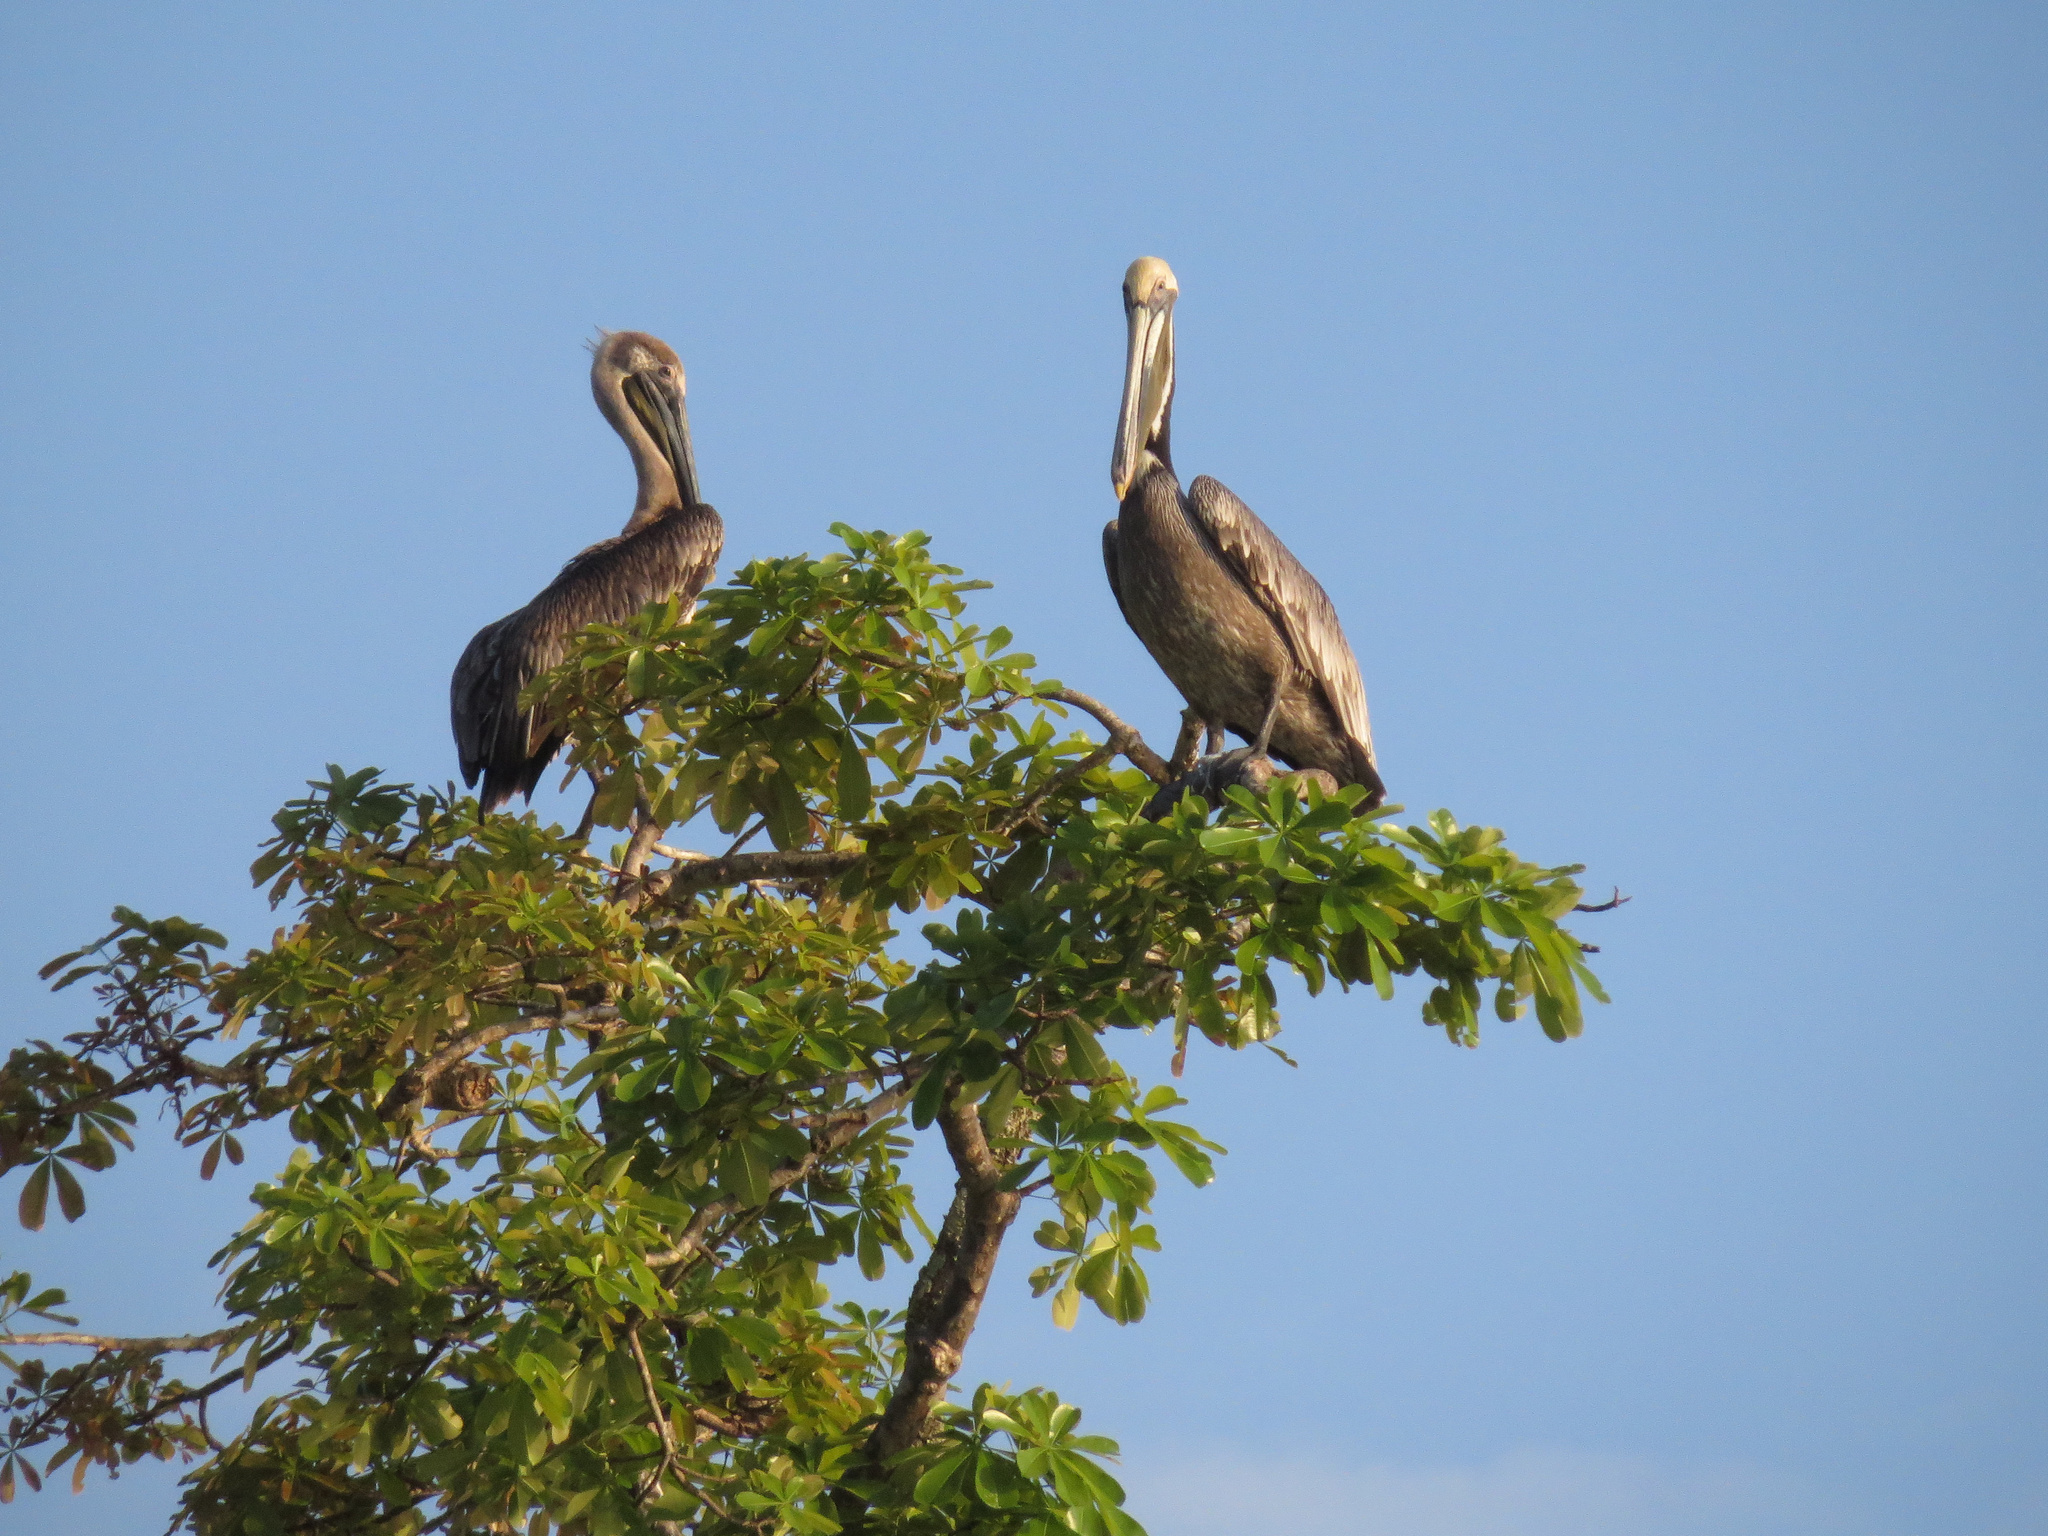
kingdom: Animalia
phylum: Chordata
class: Aves
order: Pelecaniformes
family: Pelecanidae
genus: Pelecanus
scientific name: Pelecanus occidentalis
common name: Brown pelican
